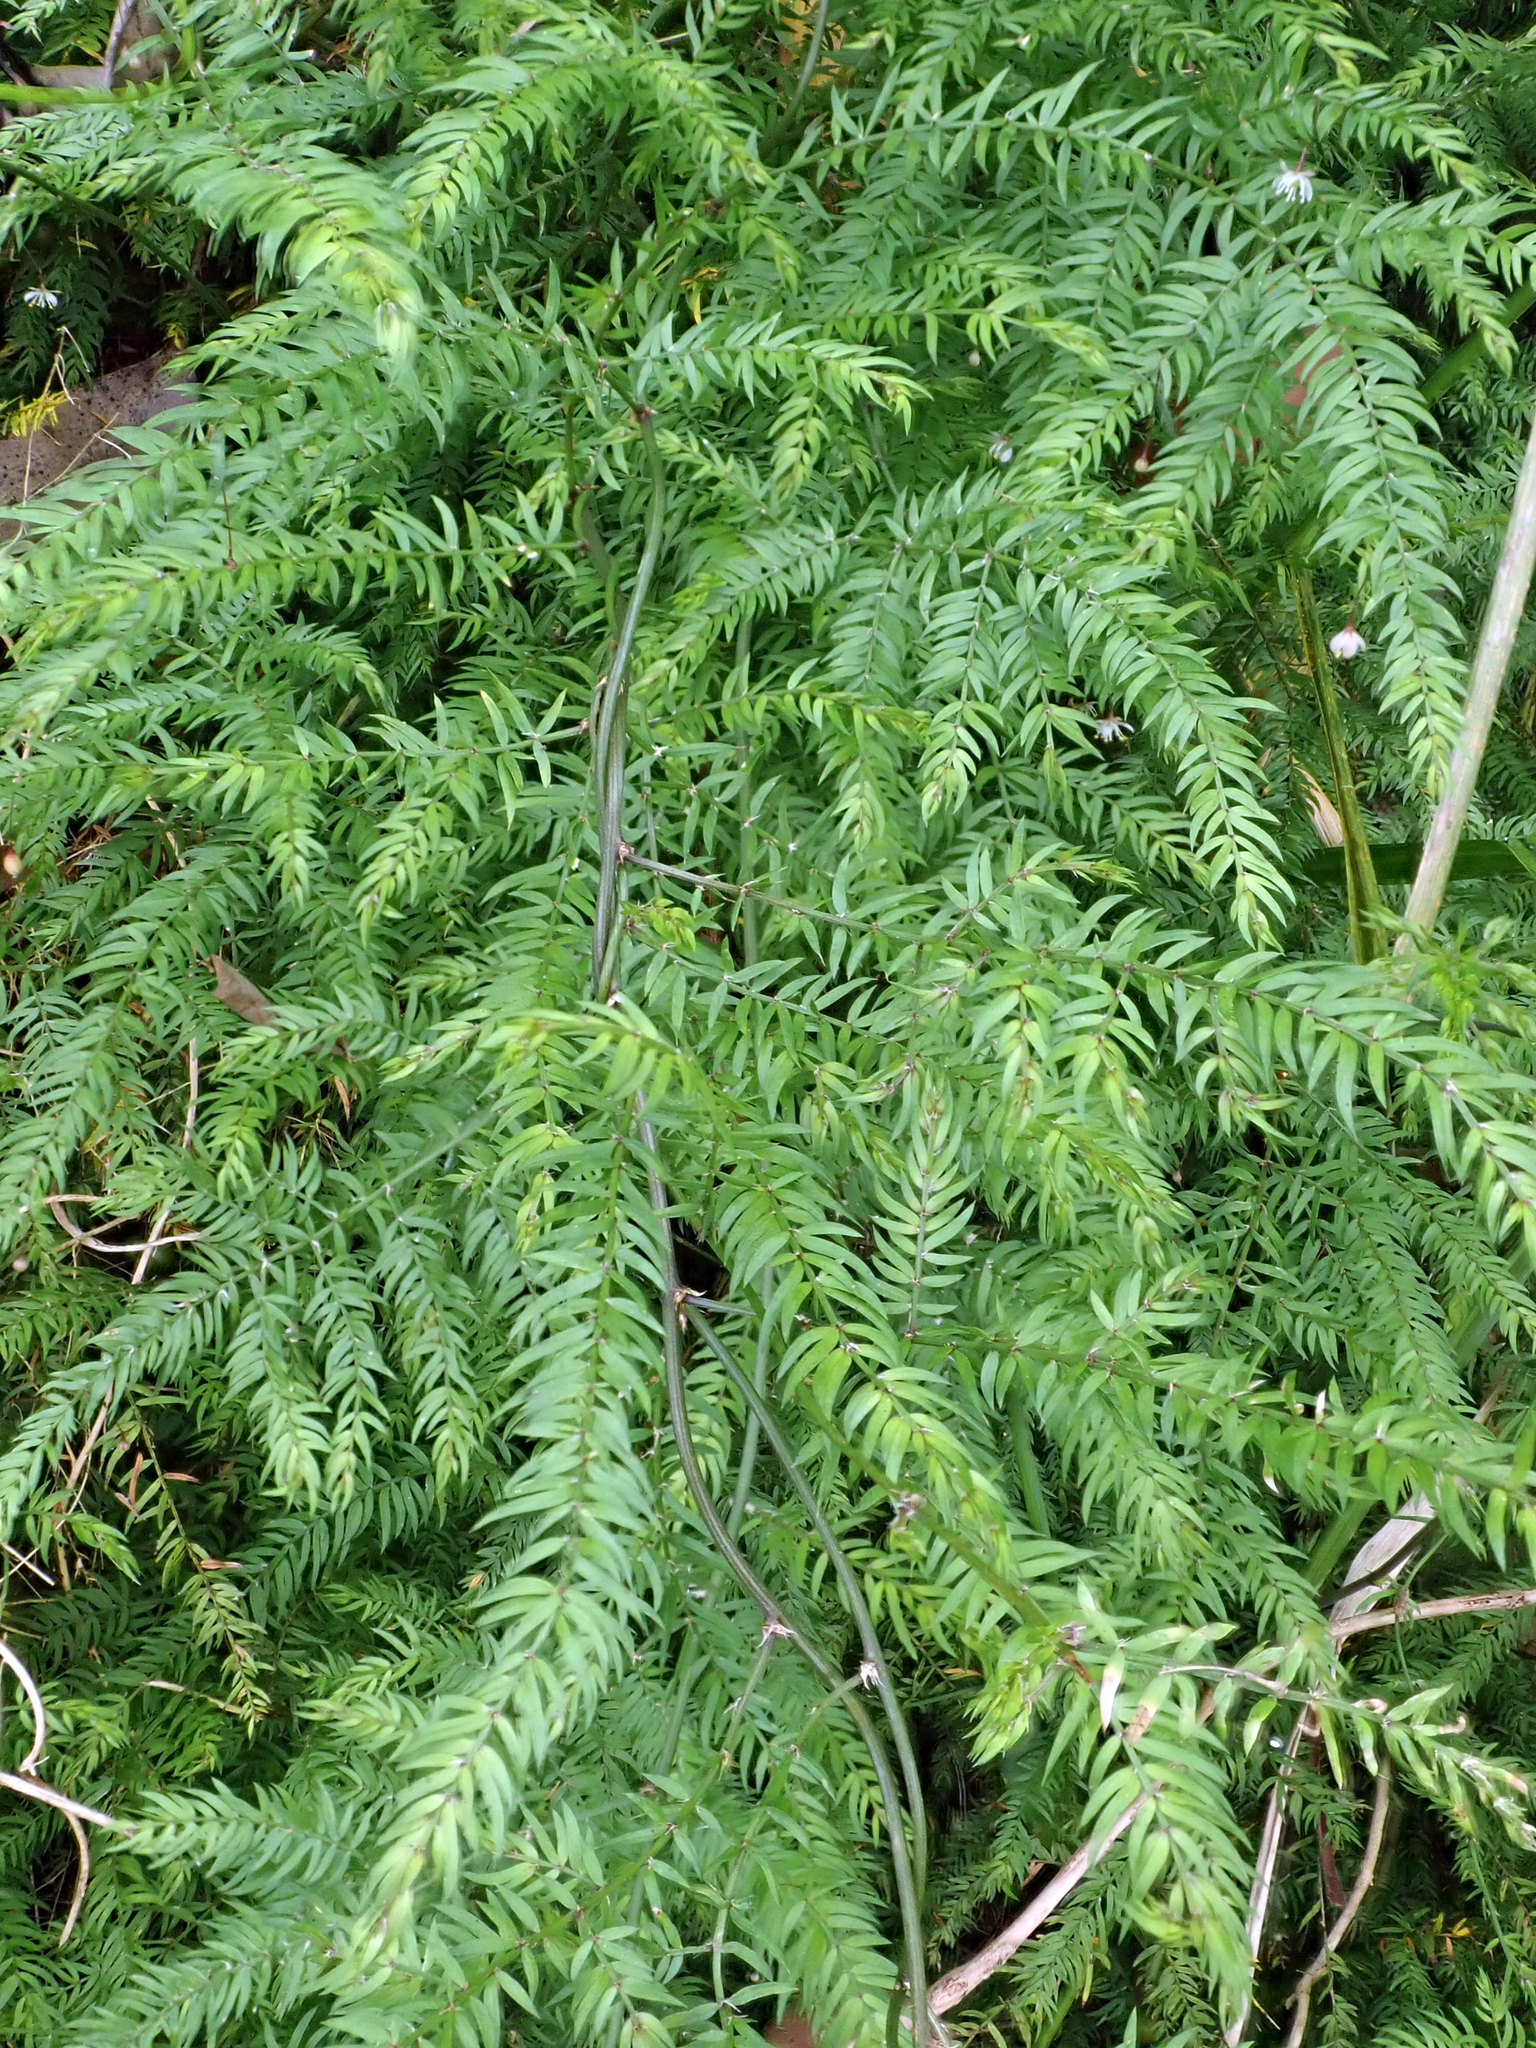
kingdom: Plantae
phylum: Tracheophyta
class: Liliopsida
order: Asparagales
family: Asparagaceae
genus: Asparagus
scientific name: Asparagus scandens
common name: Asparagus-fern
